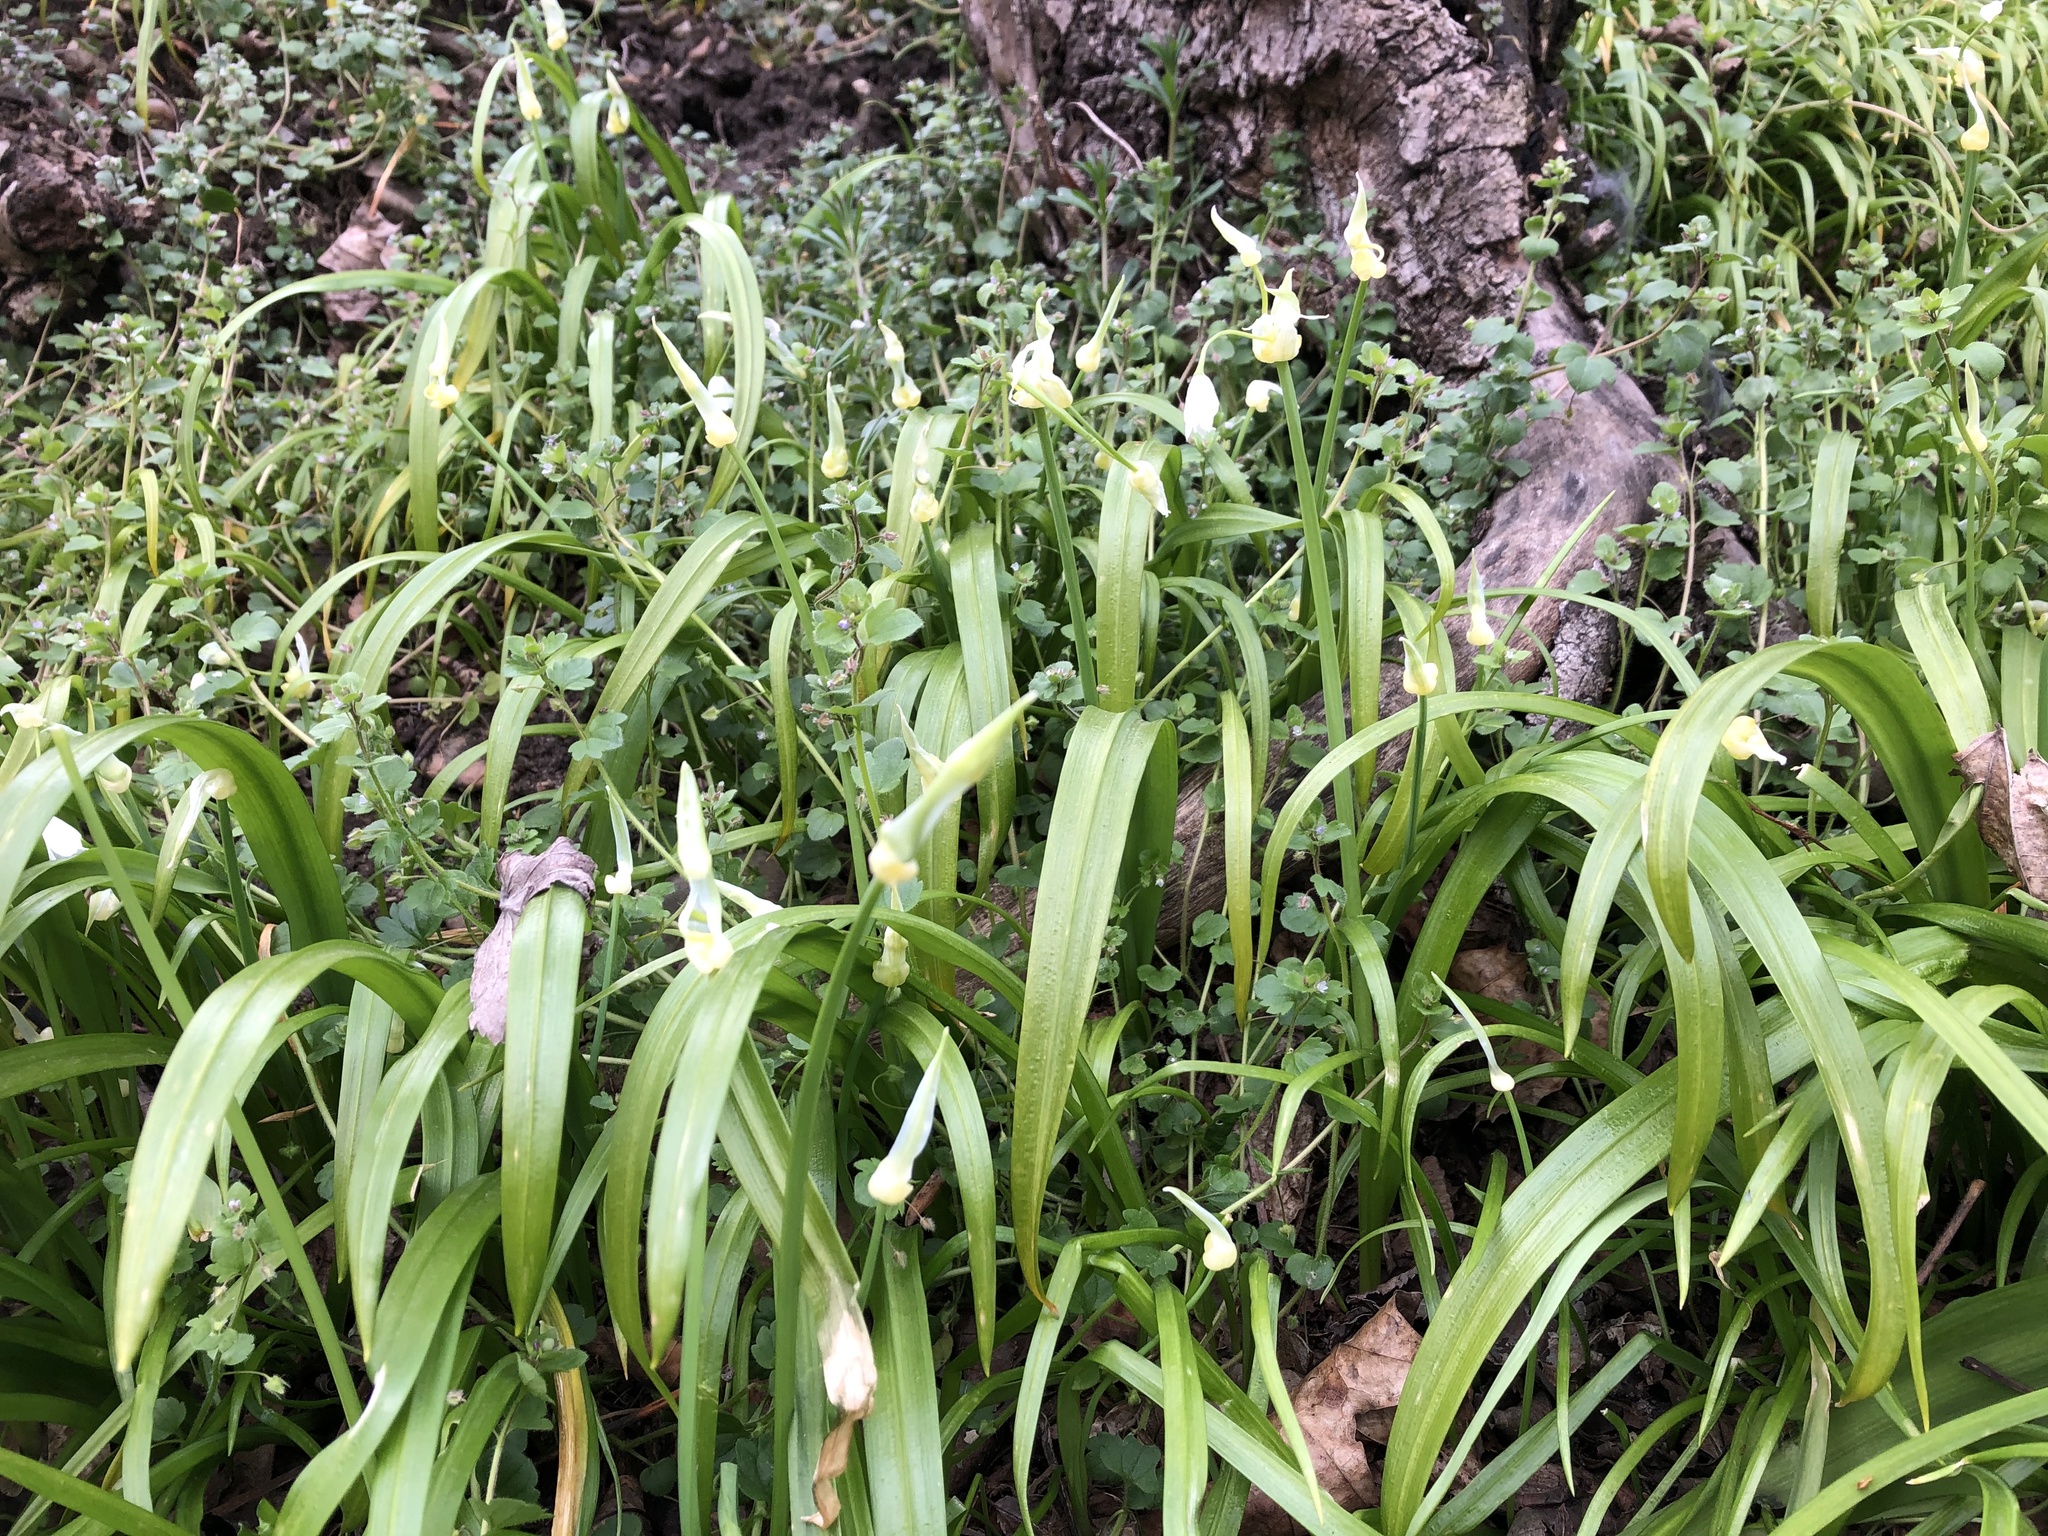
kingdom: Plantae
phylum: Tracheophyta
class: Liliopsida
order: Asparagales
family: Amaryllidaceae
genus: Allium
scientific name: Allium paradoxum
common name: Few-flowered garlic
